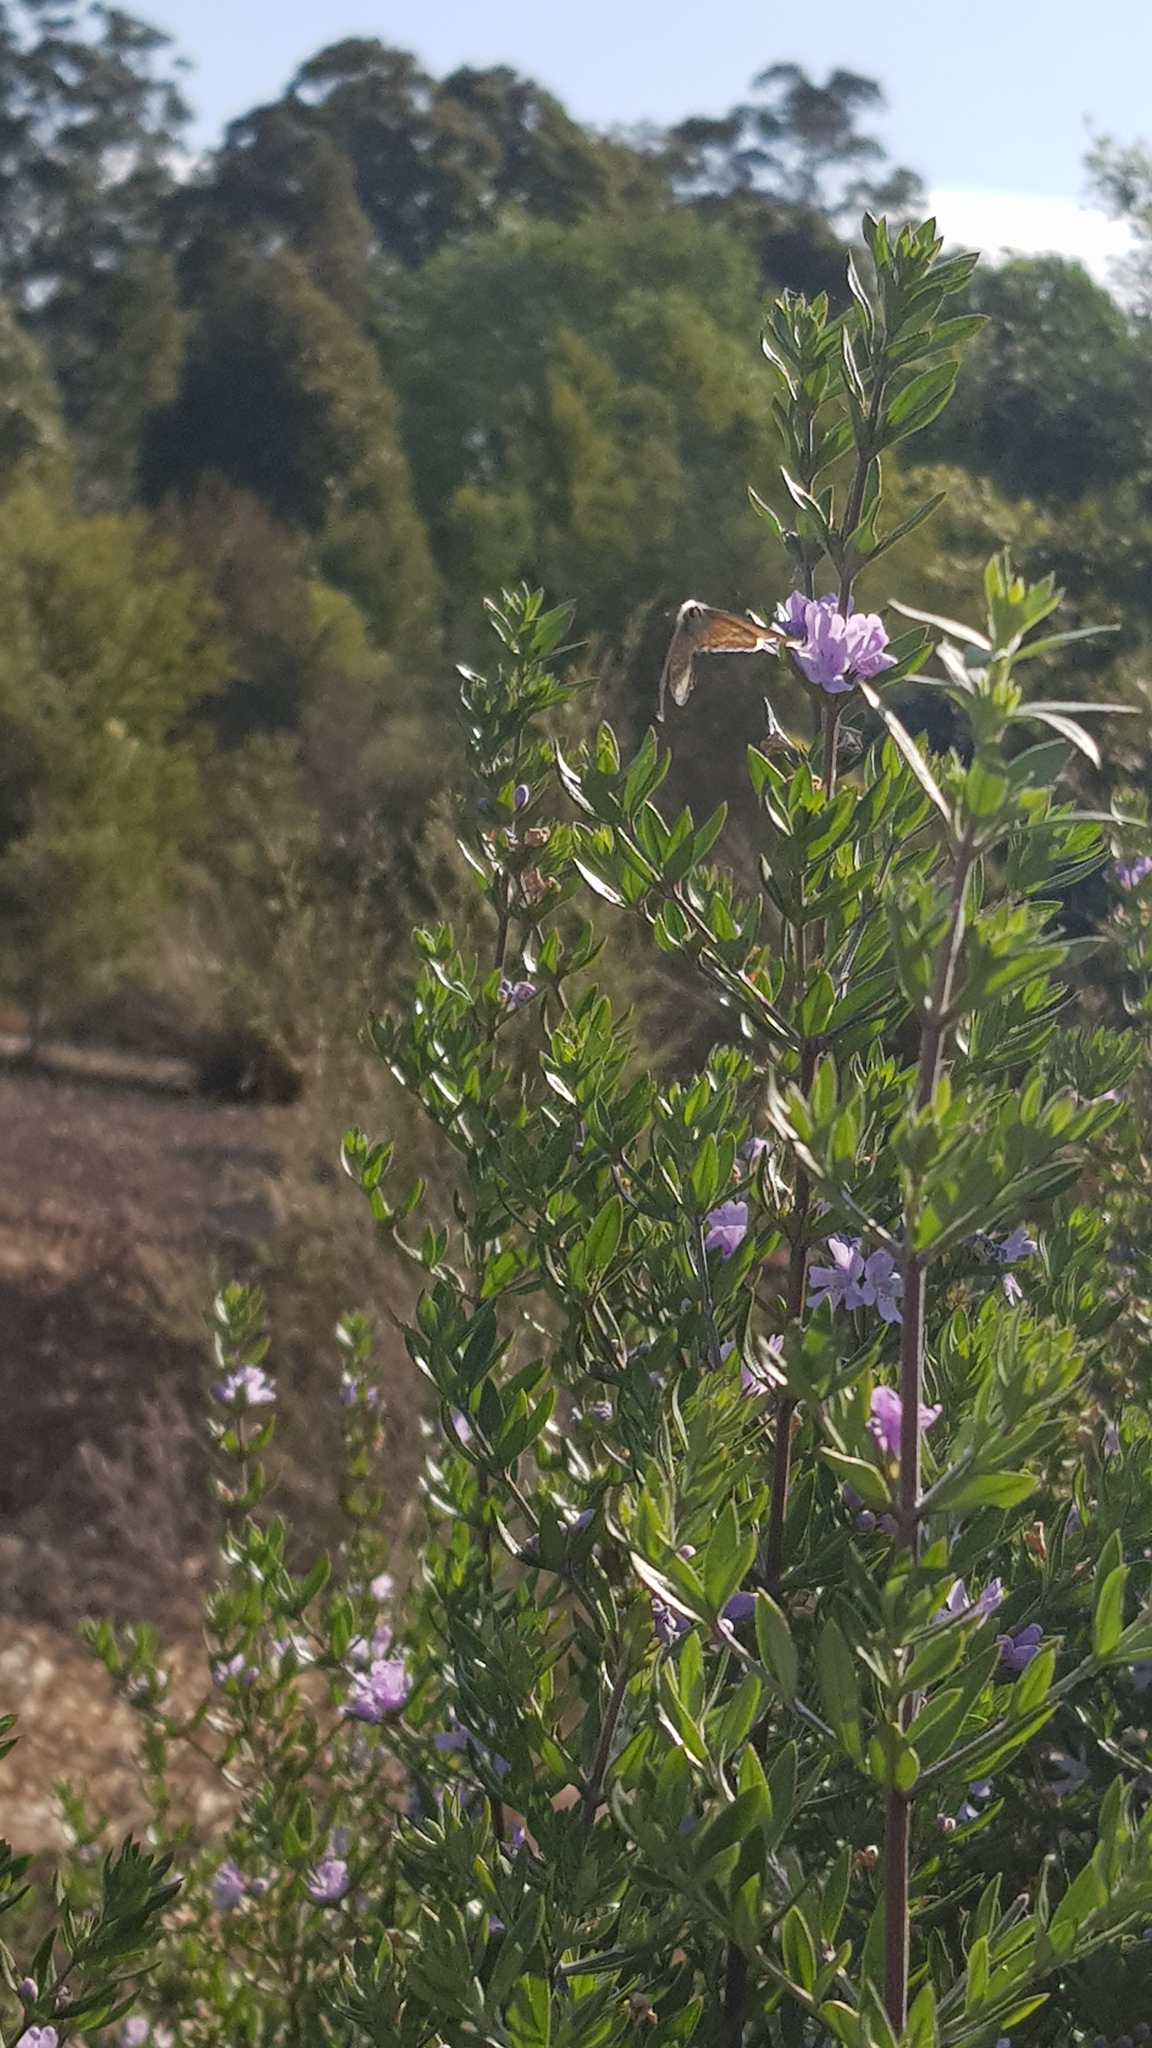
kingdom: Animalia
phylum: Arthropoda
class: Insecta
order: Lepidoptera
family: Lycaenidae
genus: Lampides
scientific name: Lampides boeticus
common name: Long-tailed blue
